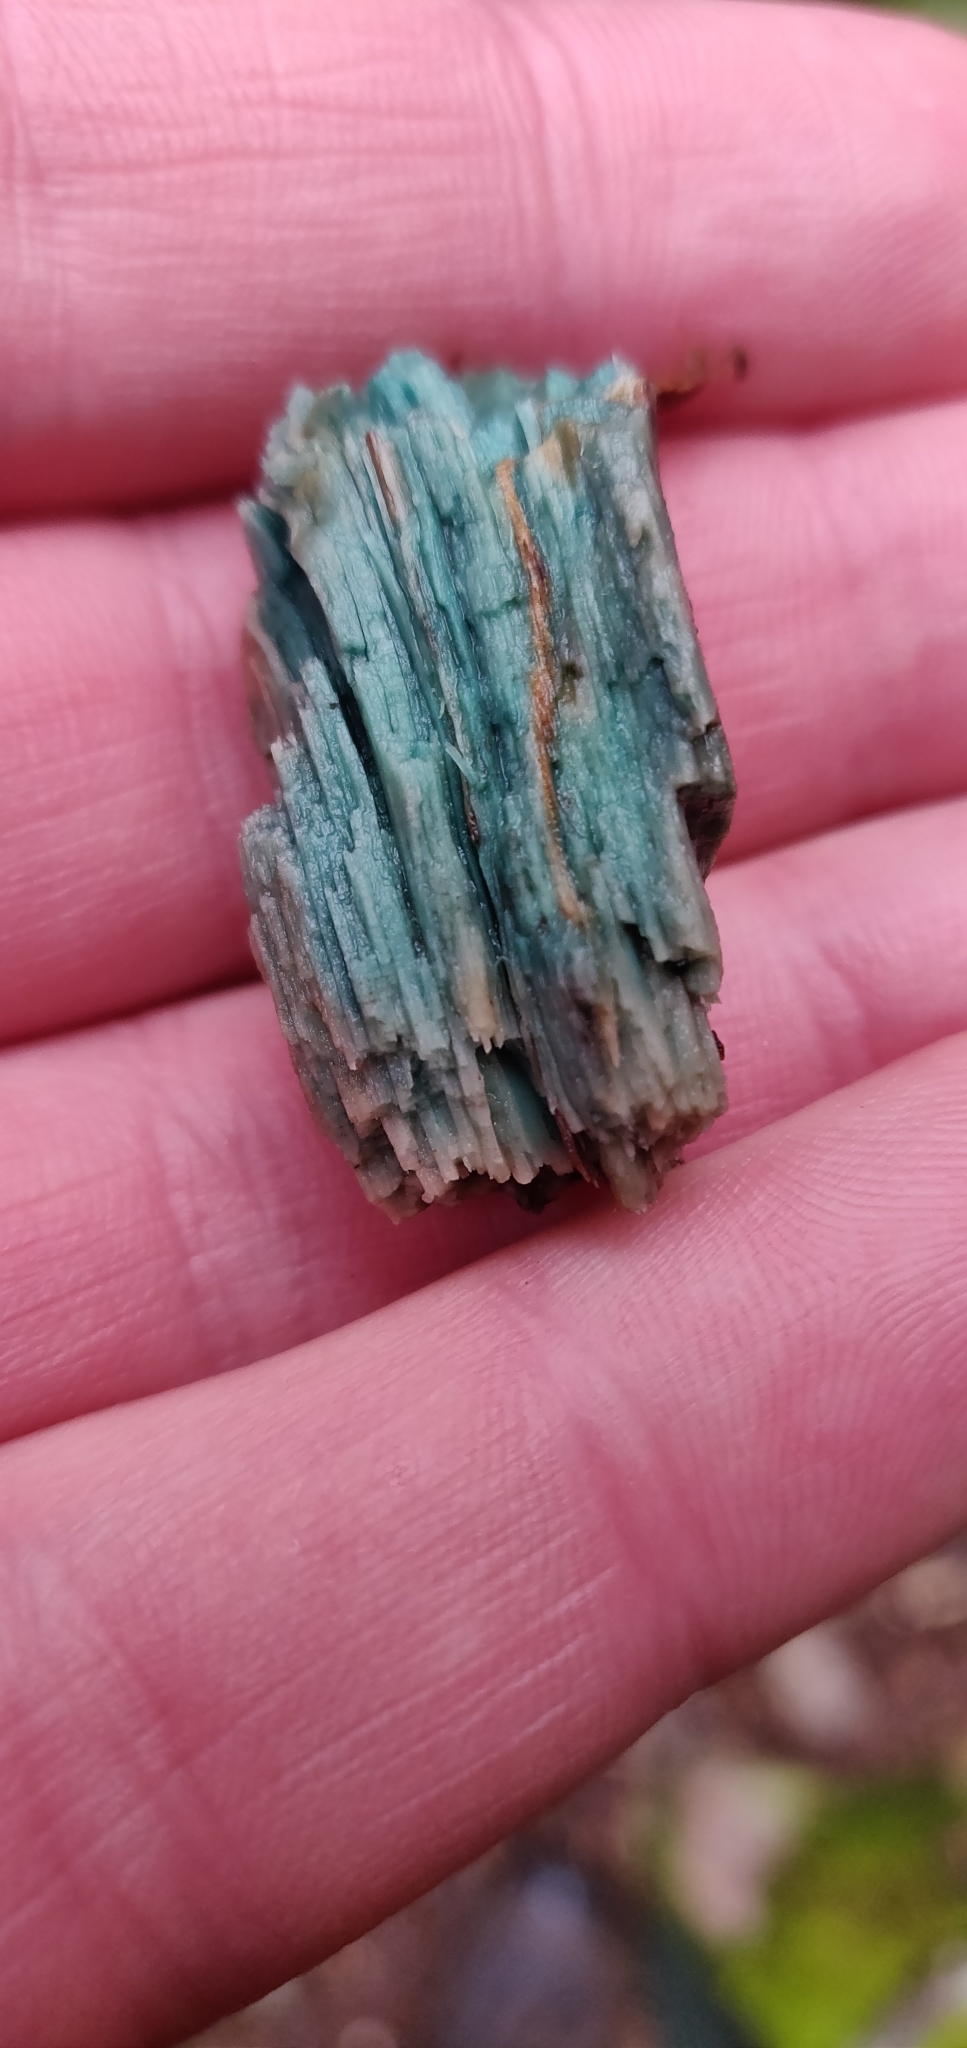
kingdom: Fungi
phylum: Ascomycota
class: Leotiomycetes
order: Helotiales
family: Chlorociboriaceae
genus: Chlorociboria
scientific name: Chlorociboria
